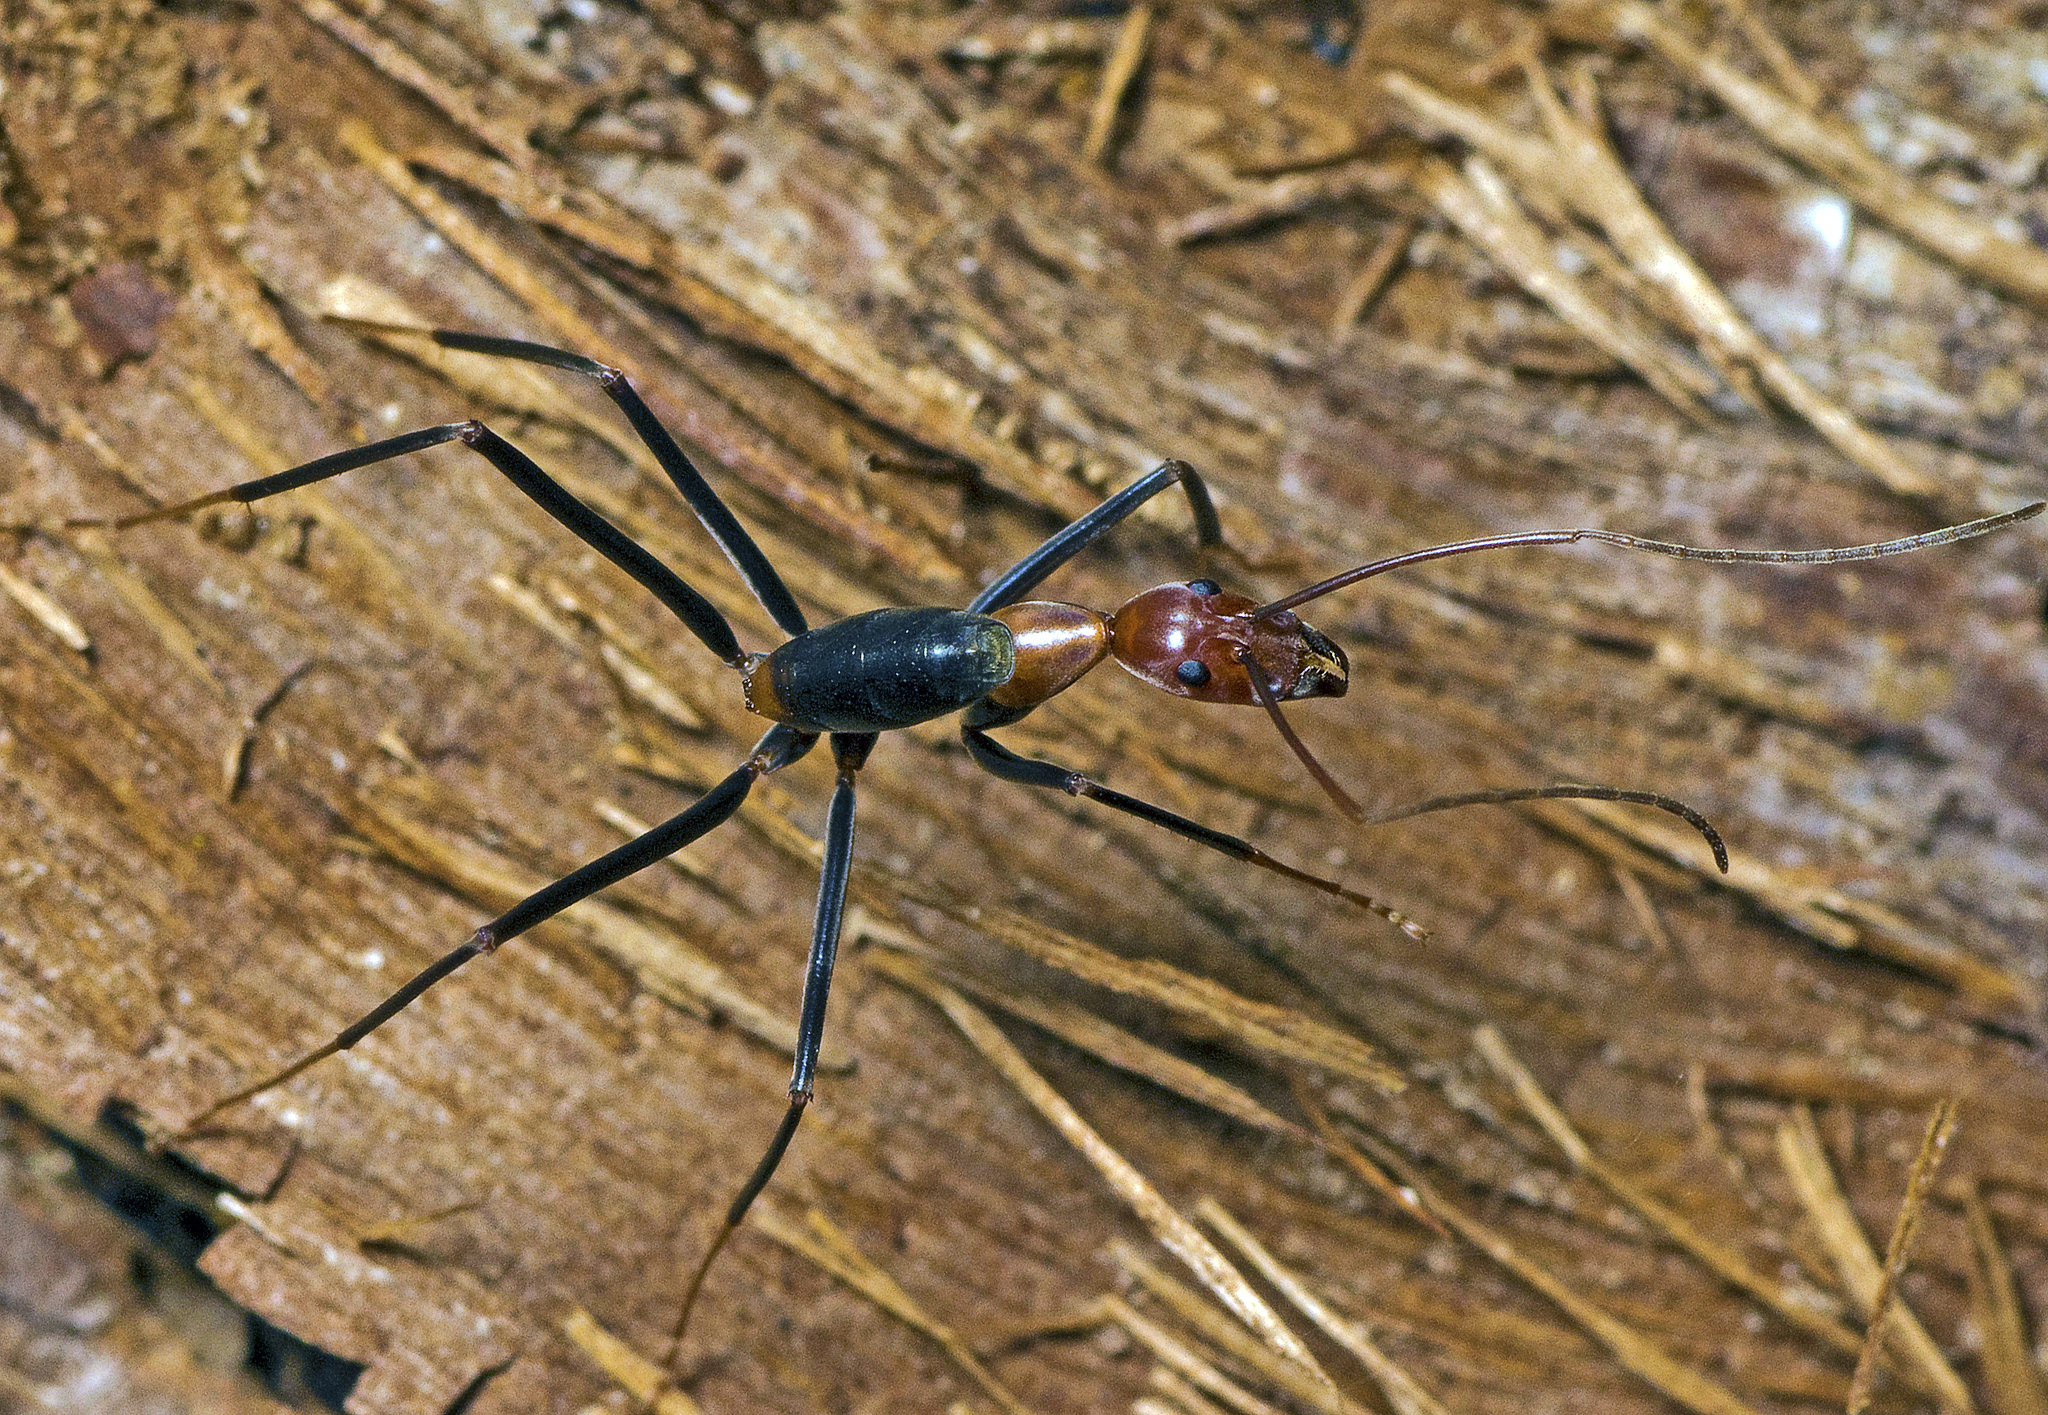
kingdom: Animalia
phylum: Arthropoda
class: Insecta
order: Hymenoptera
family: Formicidae
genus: Leptomyrmex
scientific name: Leptomyrmex rufithorax
